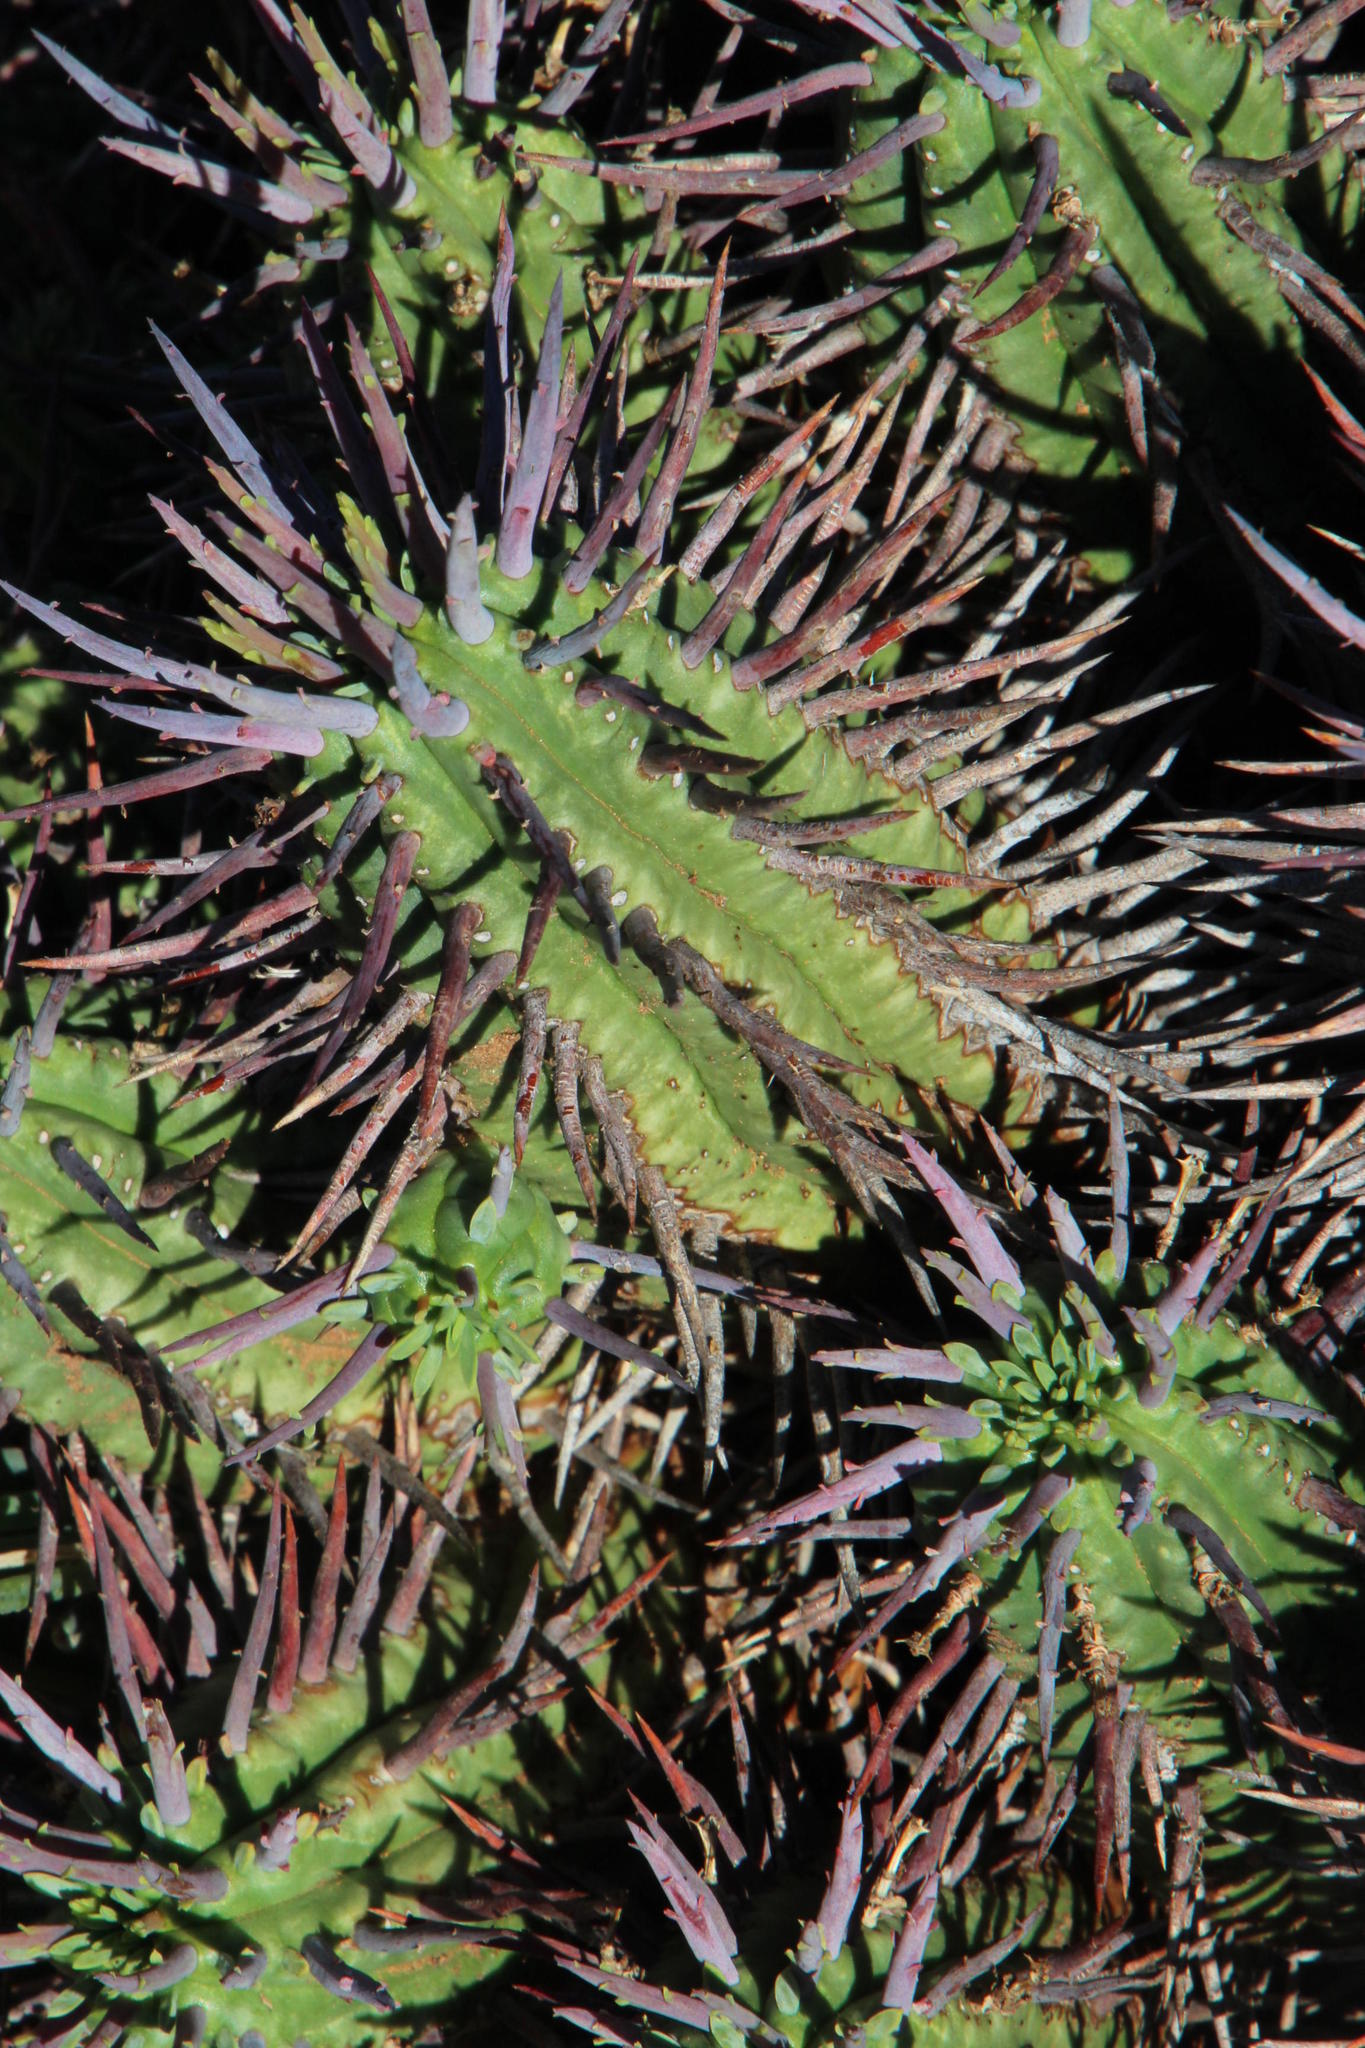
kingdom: Plantae
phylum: Tracheophyta
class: Magnoliopsida
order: Malpighiales
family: Euphorbiaceae
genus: Euphorbia
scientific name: Euphorbia ferox
